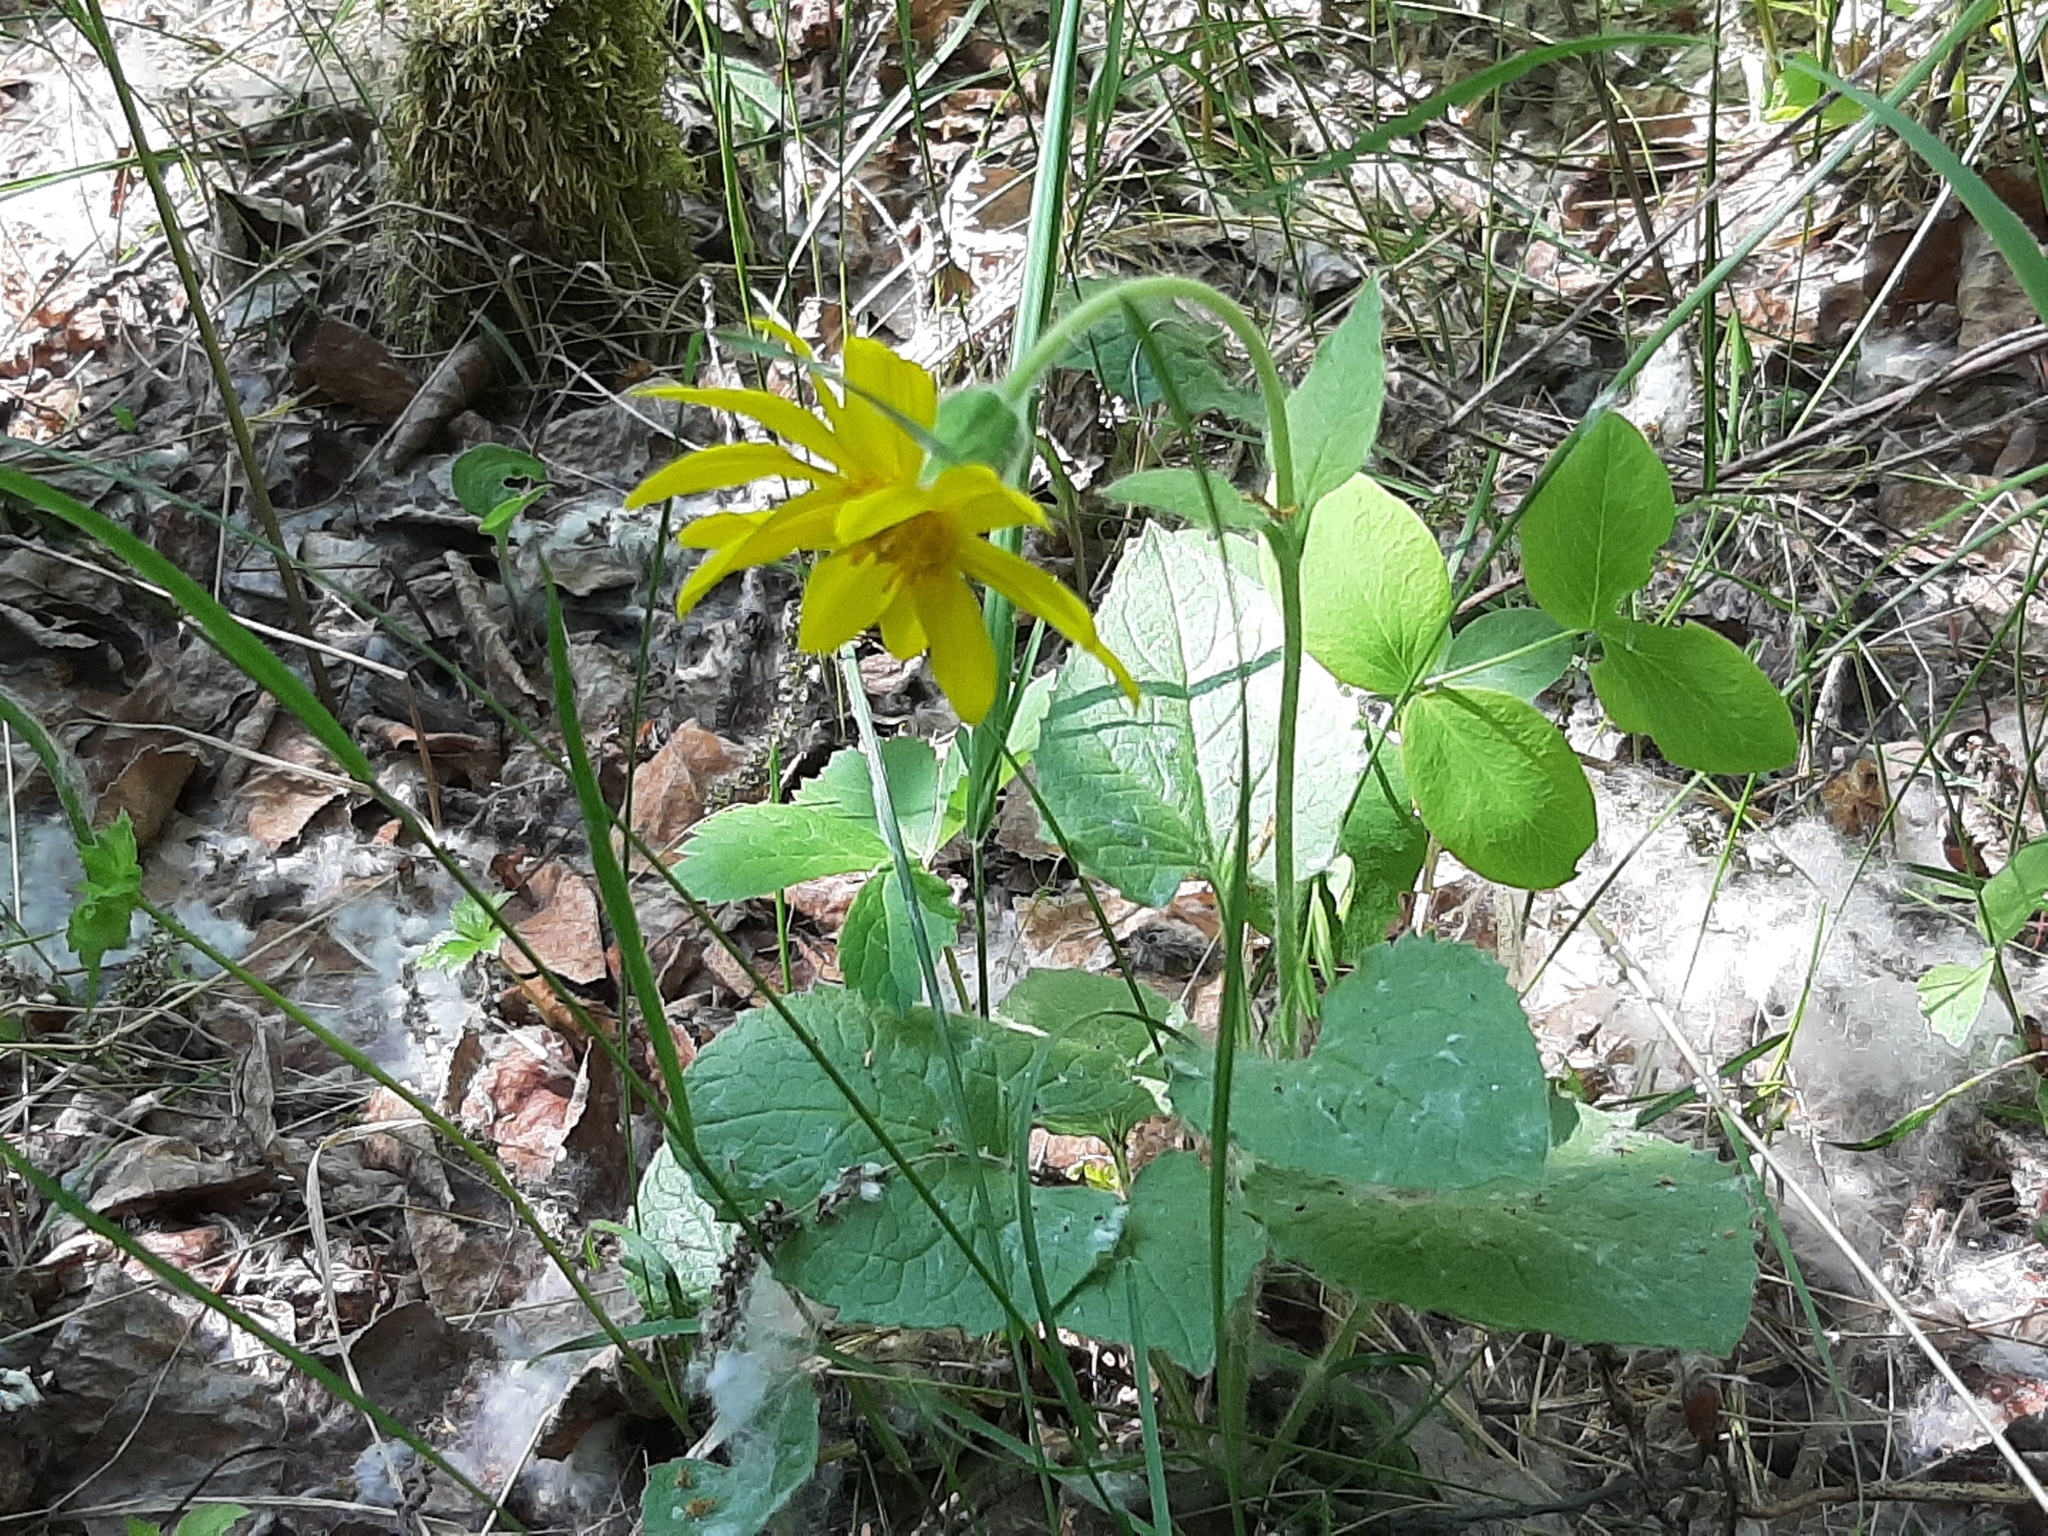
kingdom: Plantae
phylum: Tracheophyta
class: Magnoliopsida
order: Asterales
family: Asteraceae
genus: Arnica
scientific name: Arnica cordifolia
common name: Heart-leaf arnica
